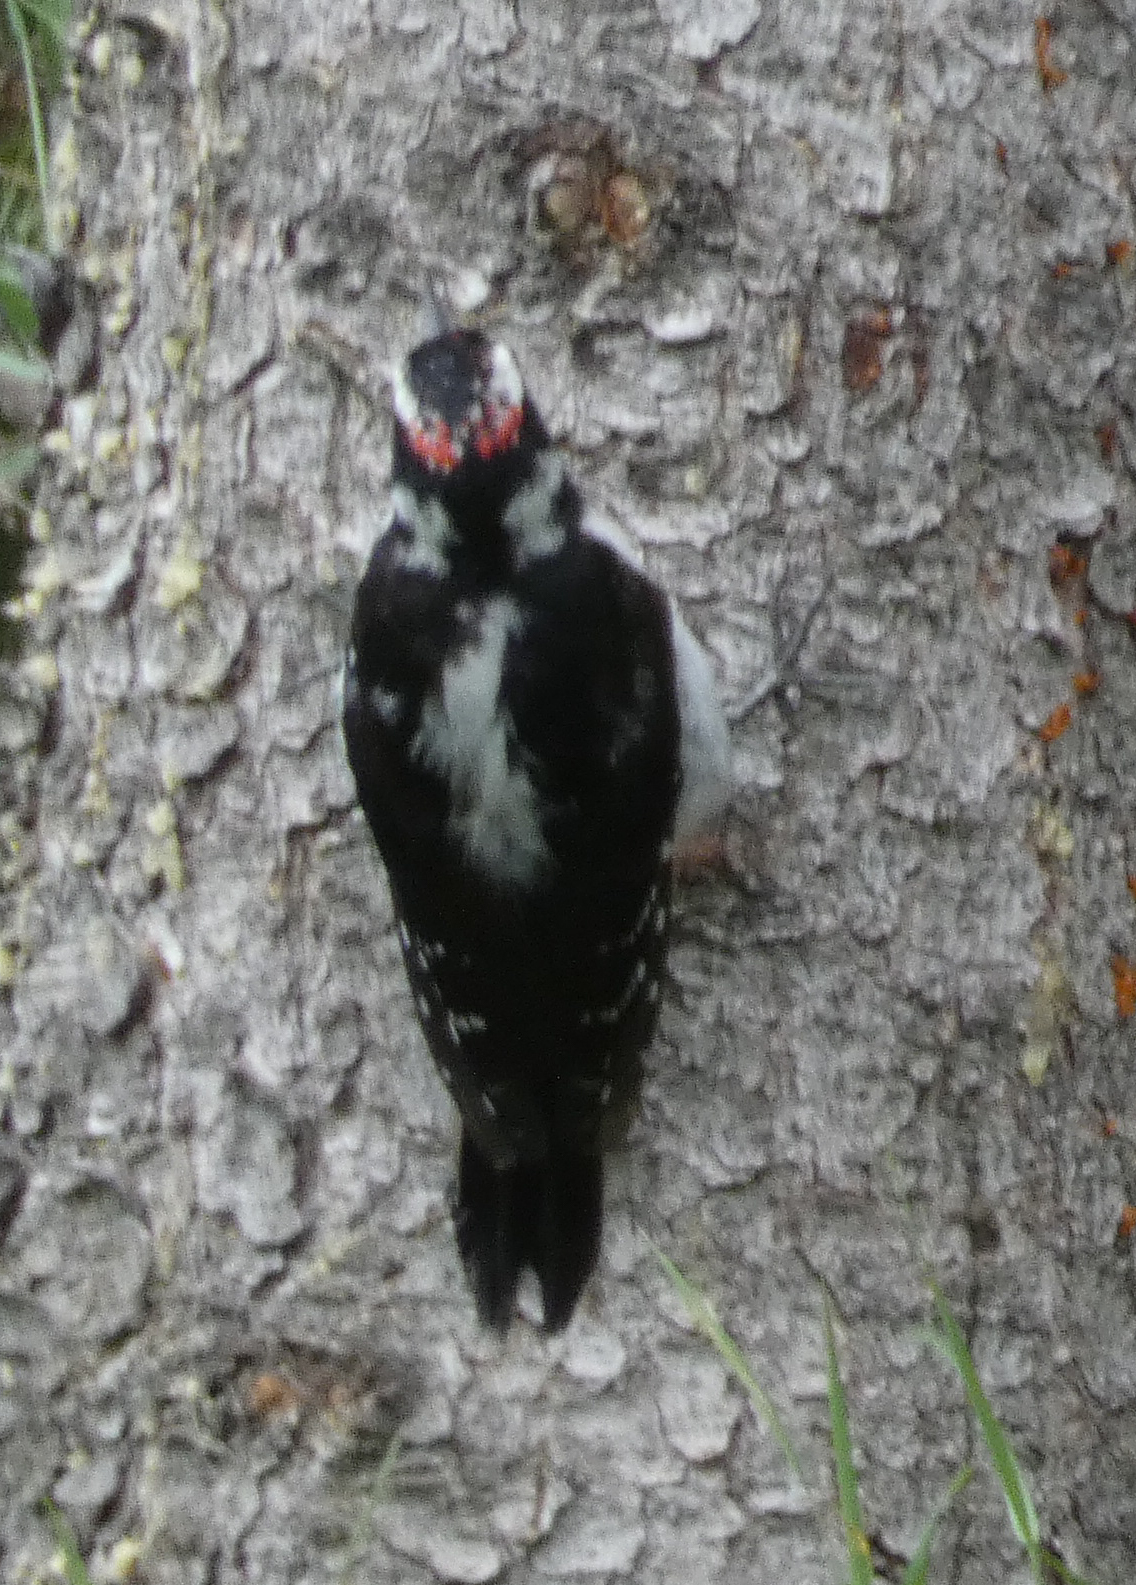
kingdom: Animalia
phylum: Chordata
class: Aves
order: Piciformes
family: Picidae
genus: Leuconotopicus
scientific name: Leuconotopicus villosus
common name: Hairy woodpecker
